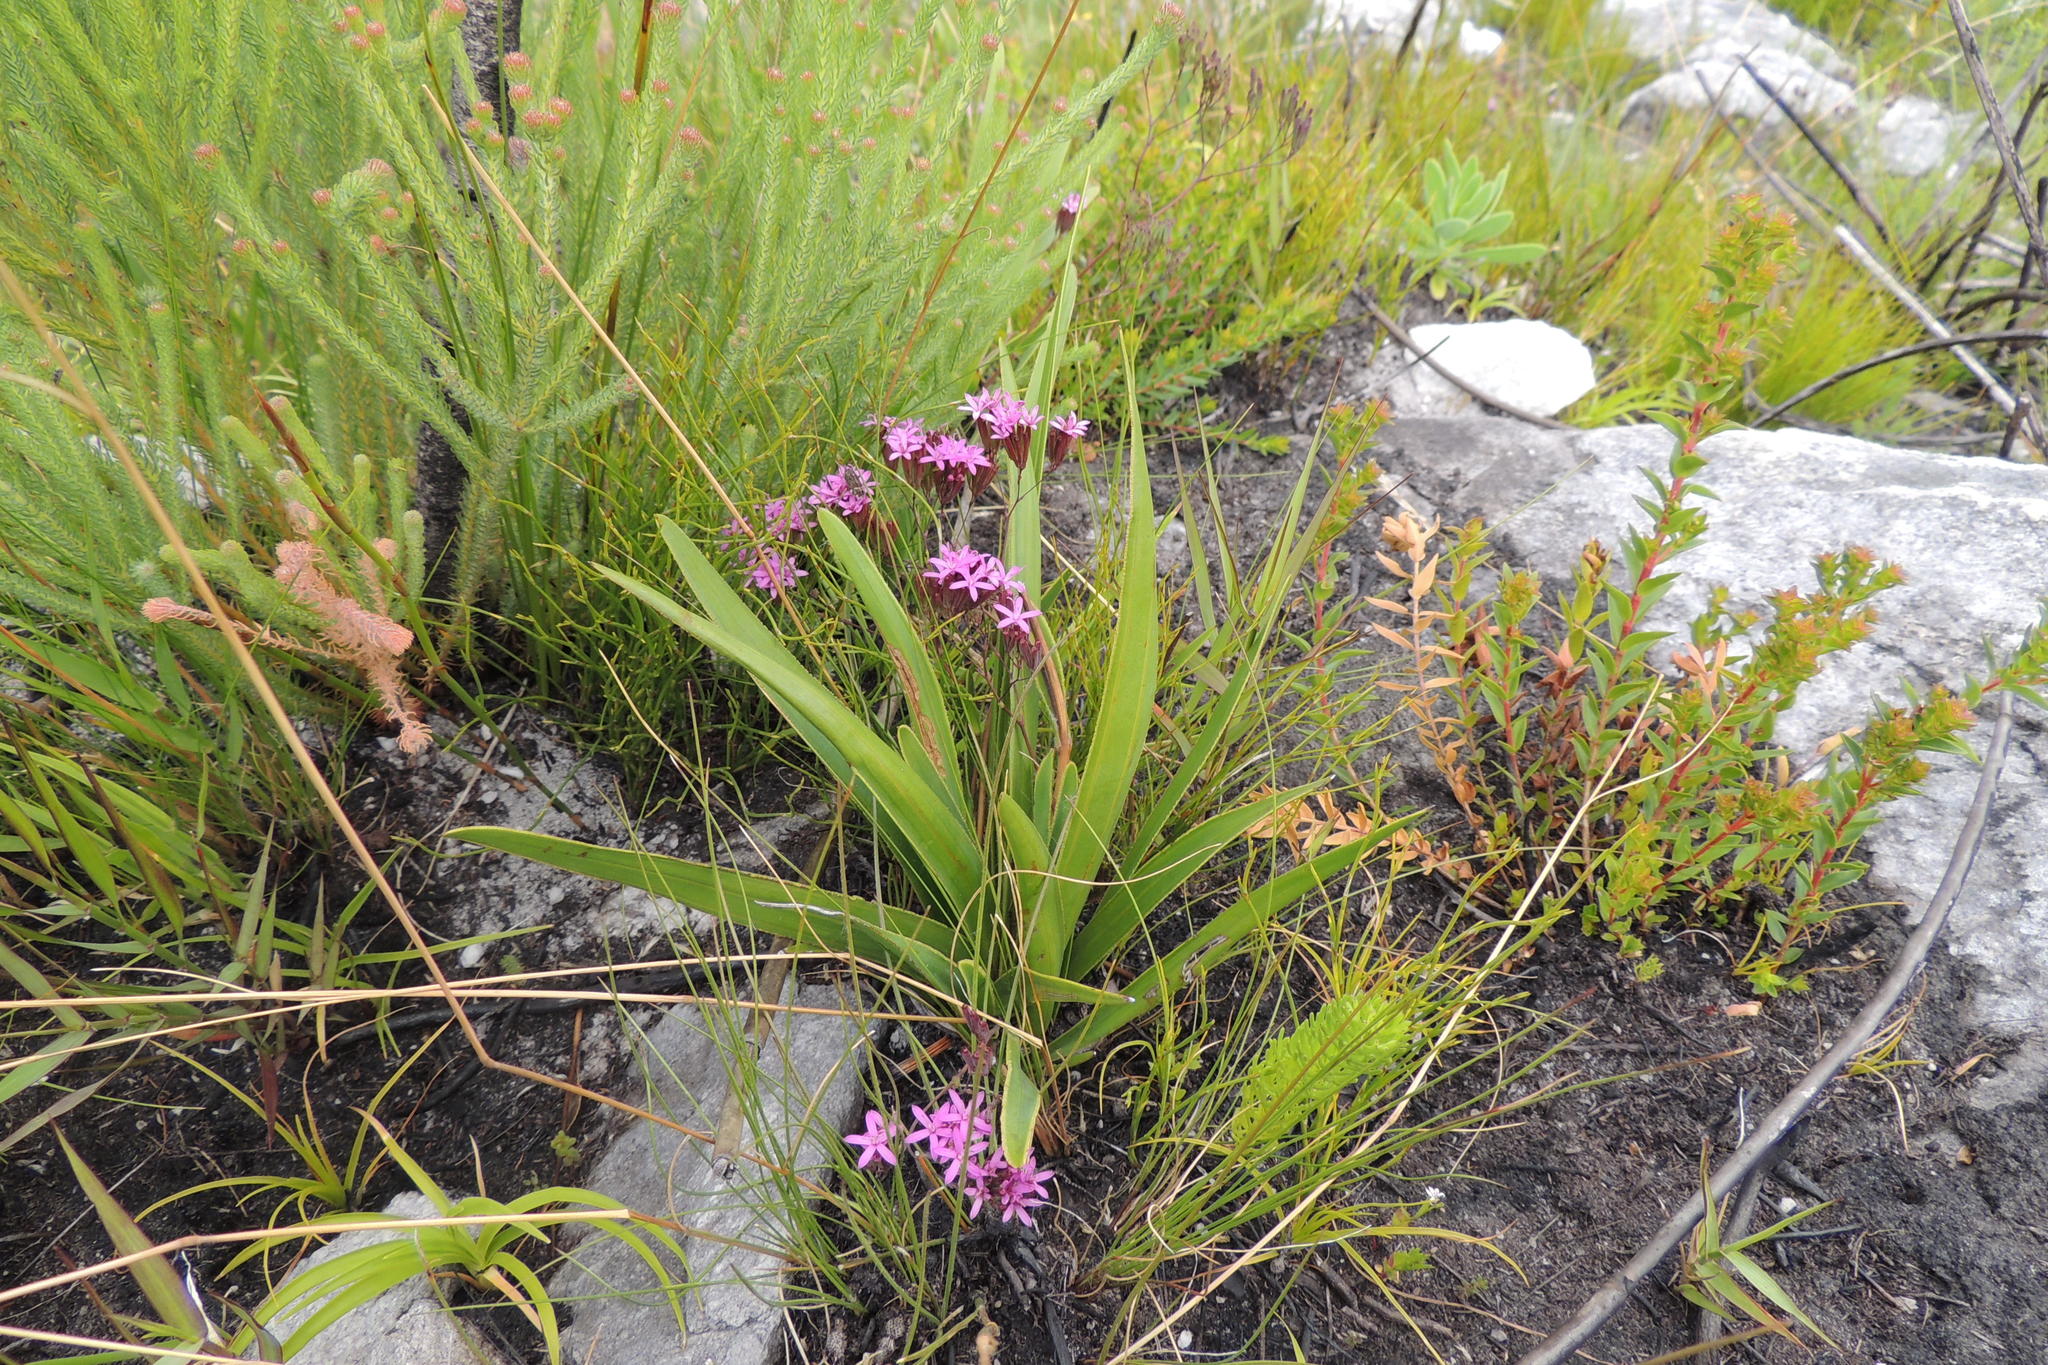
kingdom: Plantae
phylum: Tracheophyta
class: Magnoliopsida
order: Asterales
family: Asteraceae
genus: Corymbium
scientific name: Corymbium glabrum
